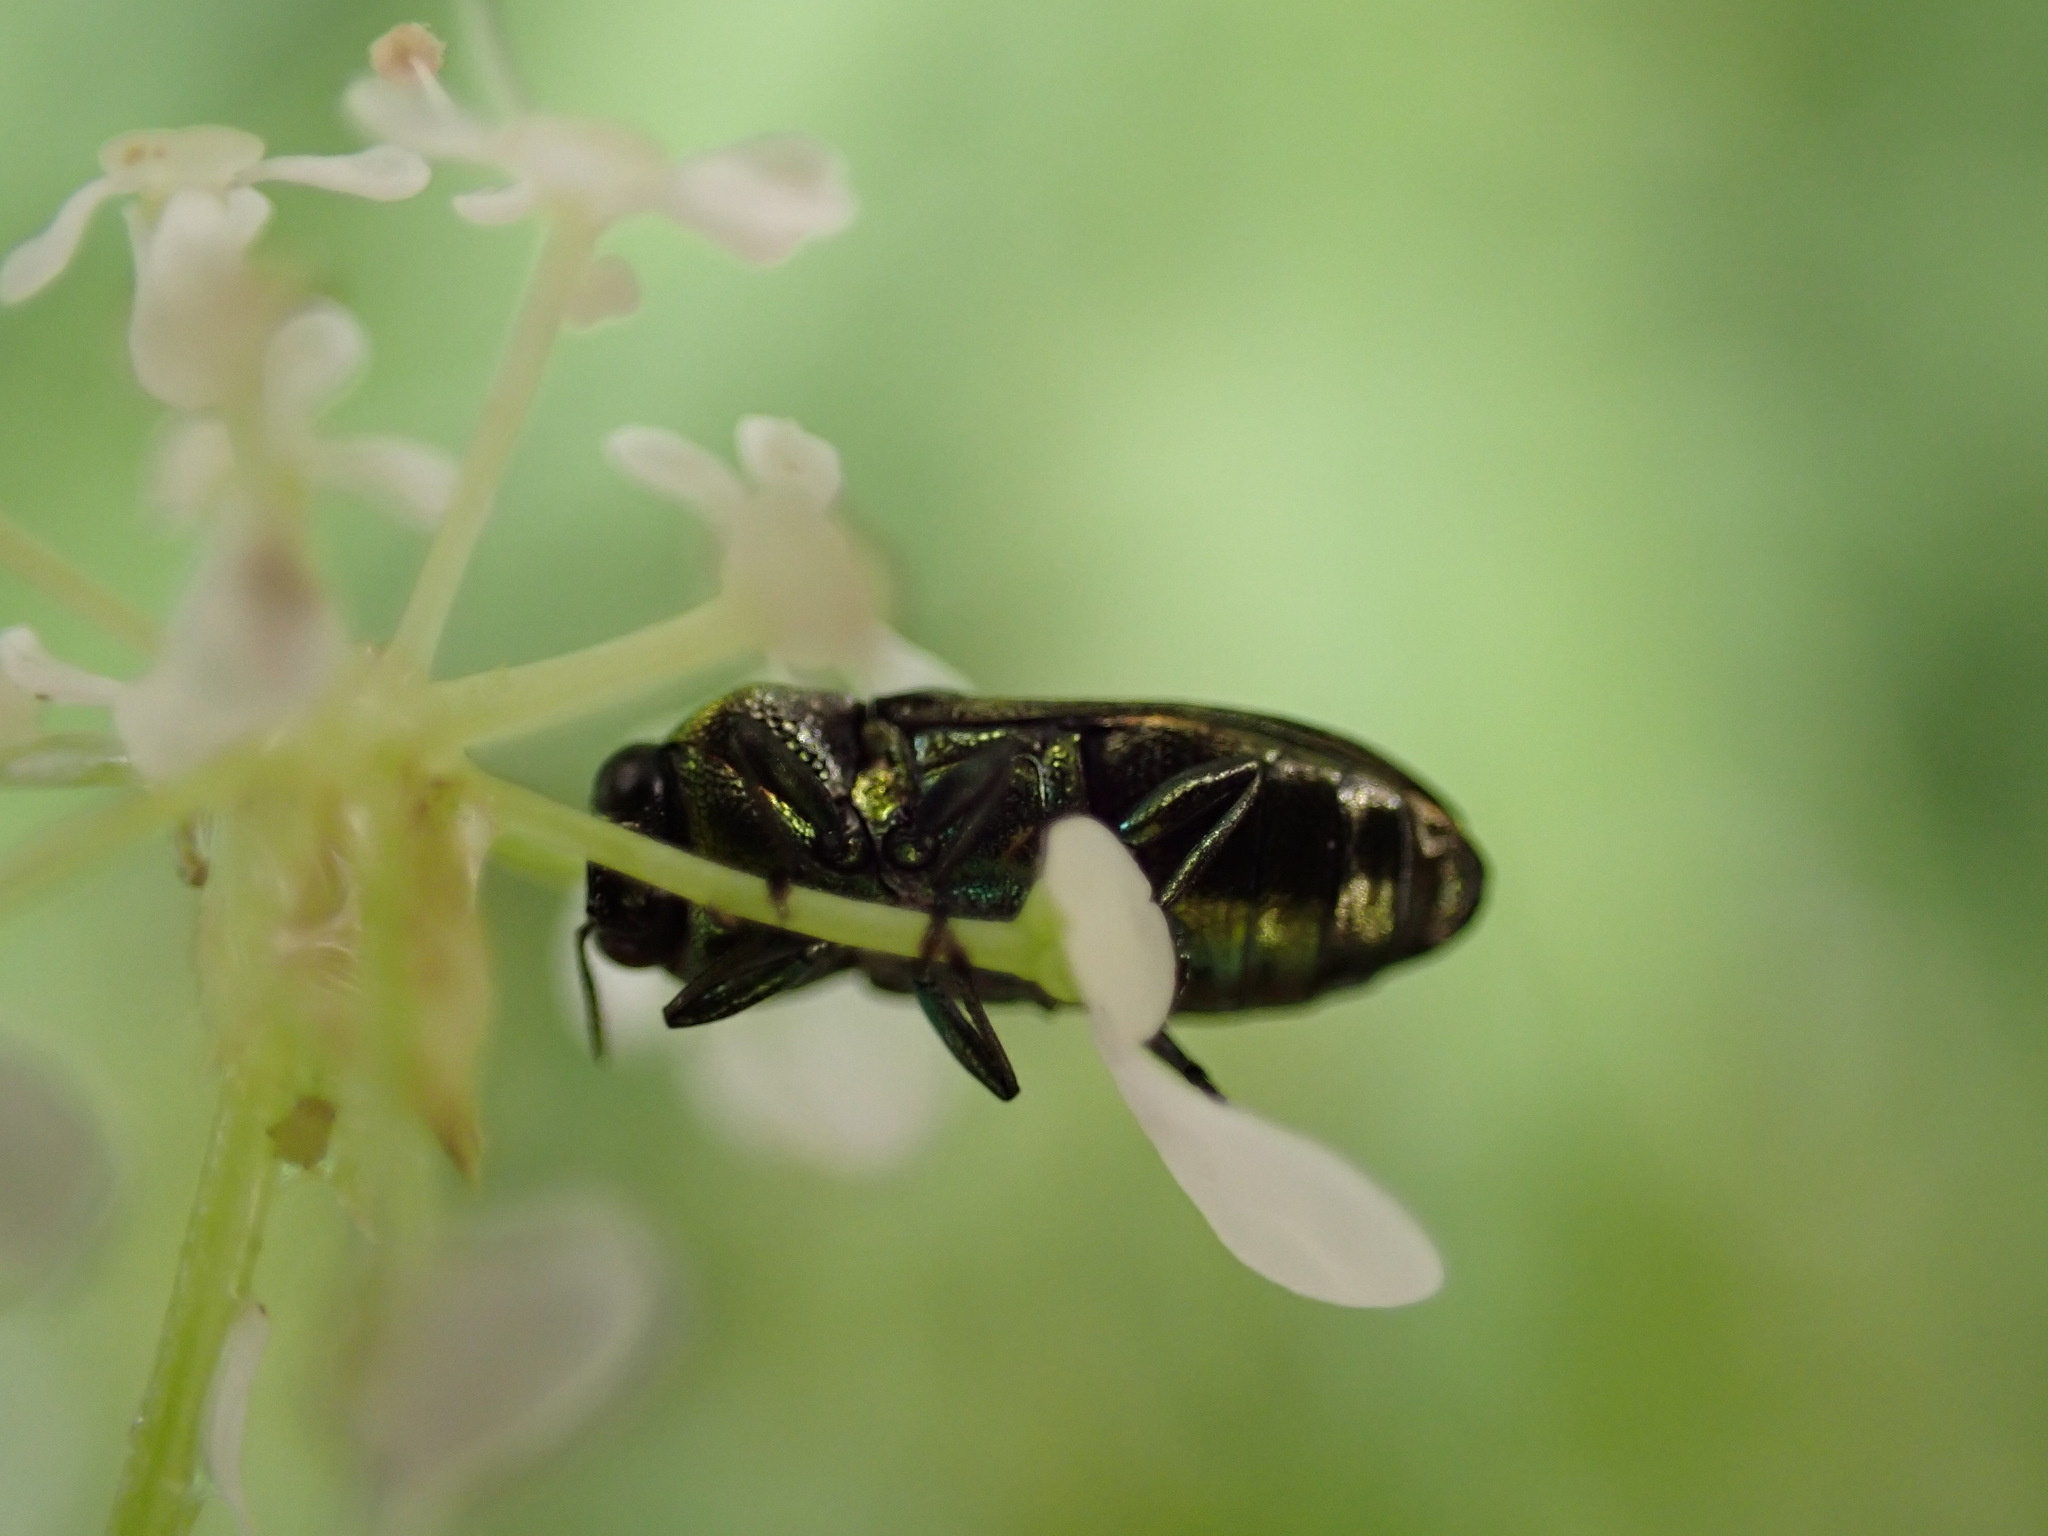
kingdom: Animalia
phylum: Arthropoda
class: Insecta
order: Coleoptera
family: Buprestidae
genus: Anthaxia
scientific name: Anthaxia thalassophila
